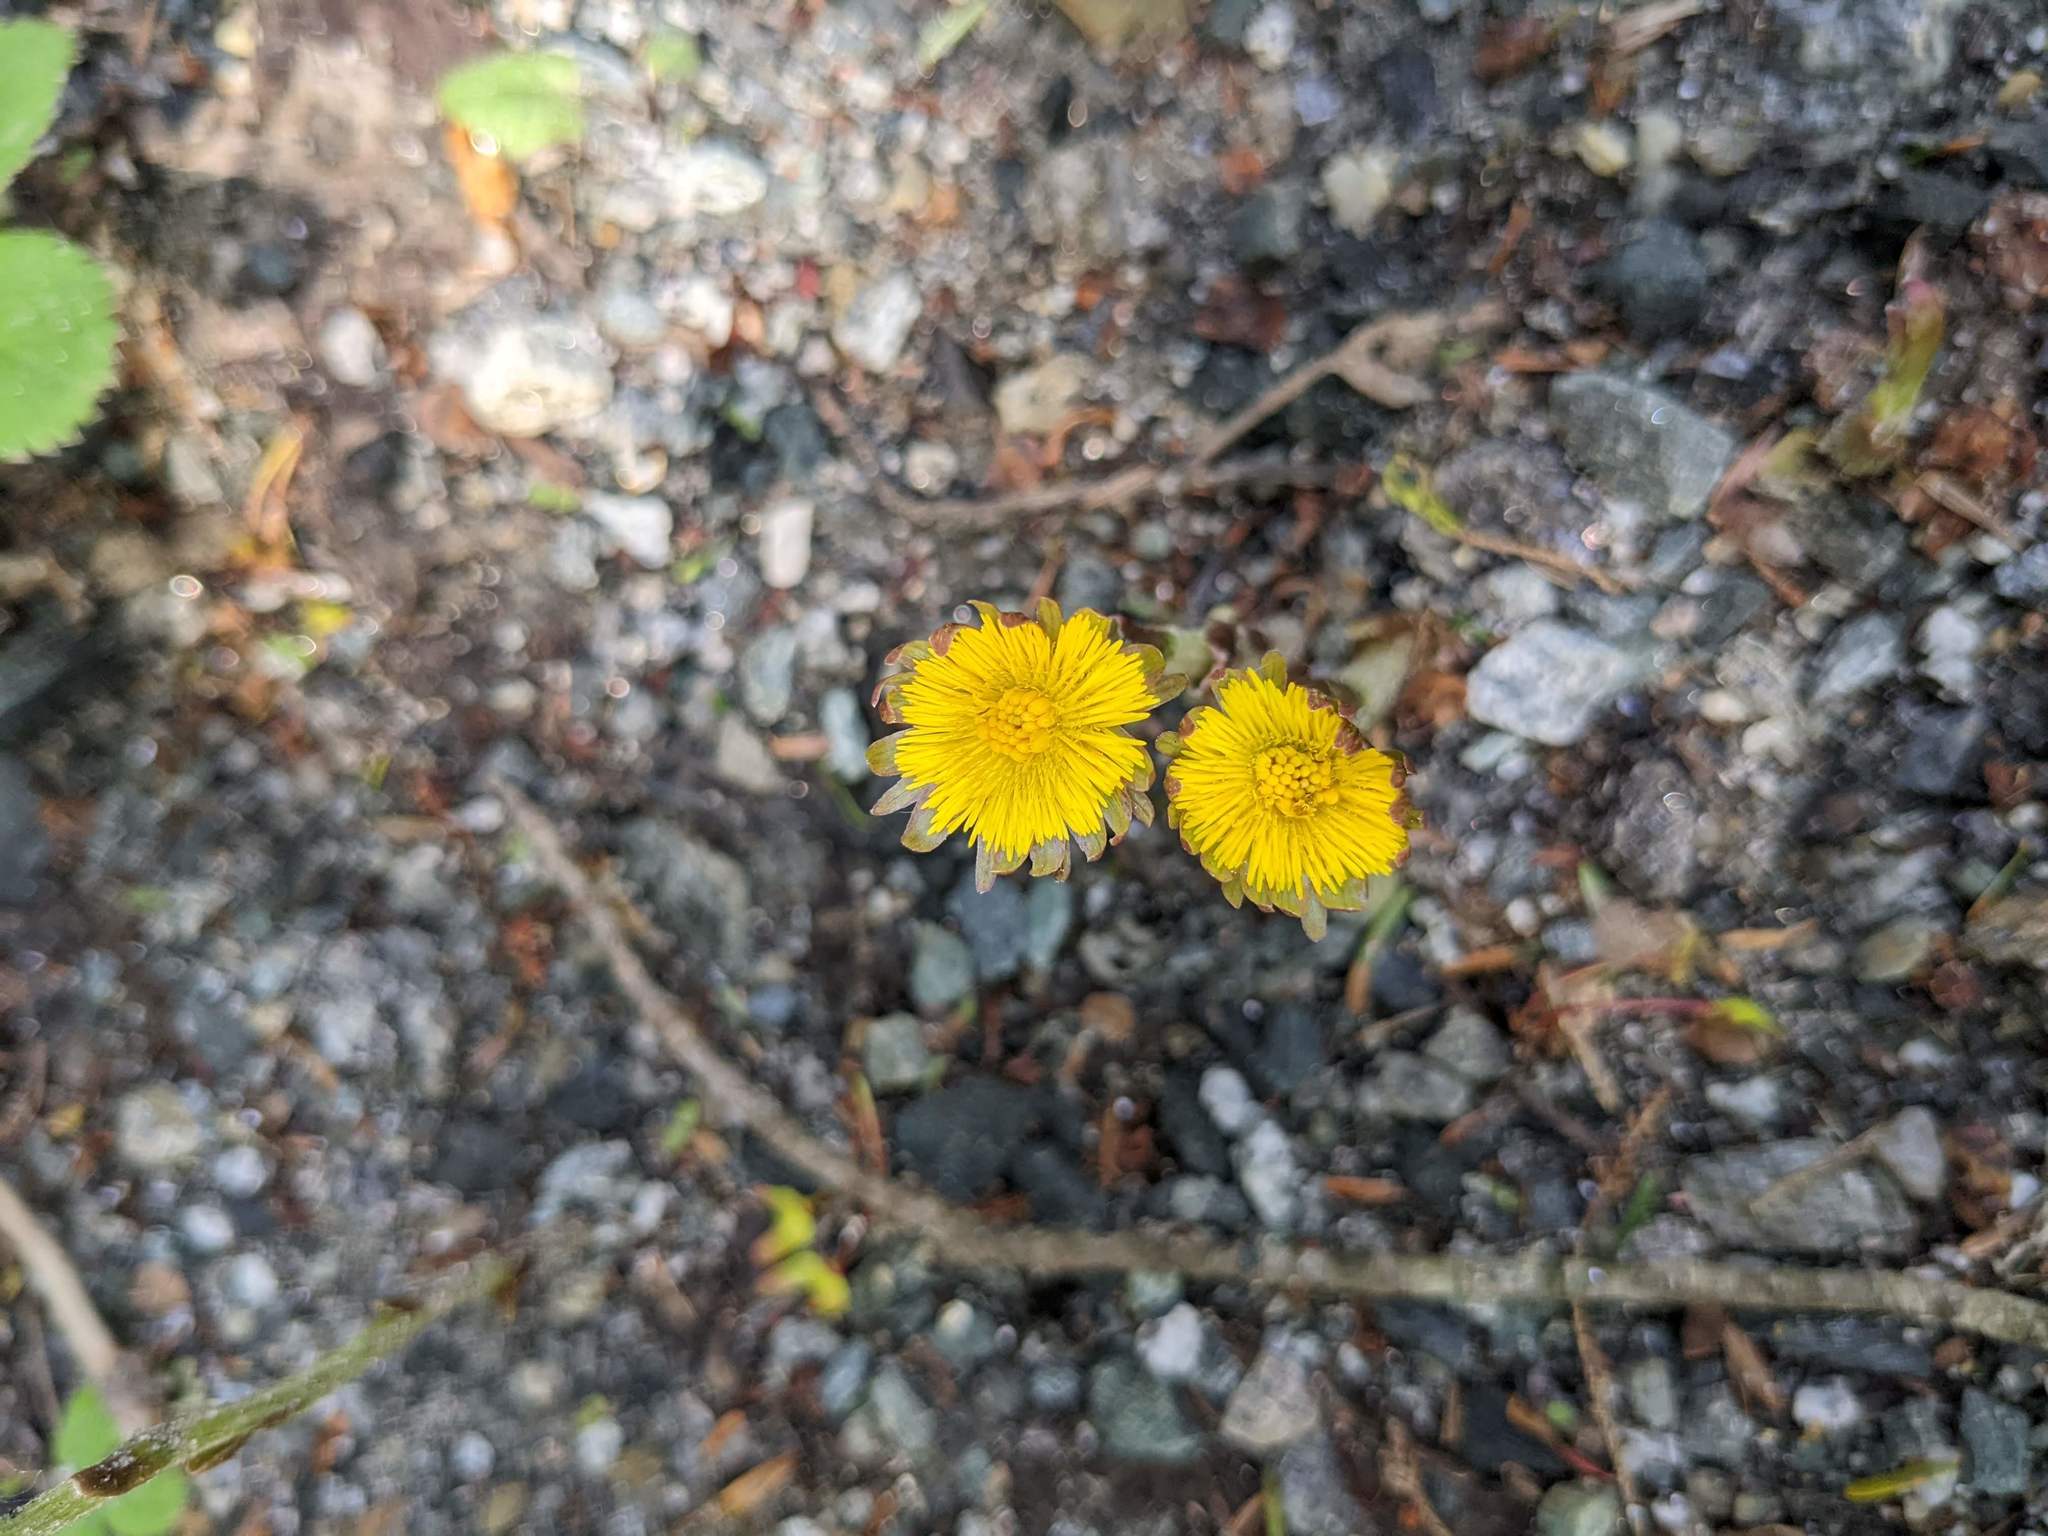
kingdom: Plantae
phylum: Tracheophyta
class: Magnoliopsida
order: Asterales
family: Asteraceae
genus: Tussilago
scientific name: Tussilago farfara
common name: Coltsfoot
